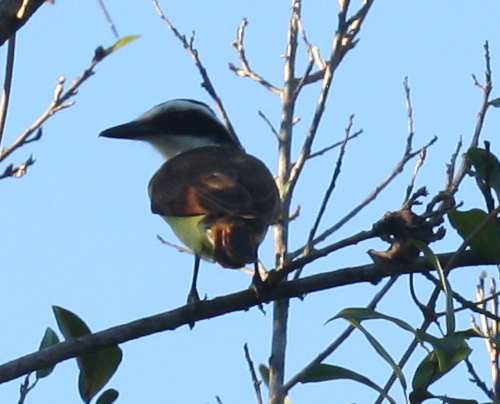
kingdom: Animalia
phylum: Chordata
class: Aves
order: Passeriformes
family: Tyrannidae
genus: Pitangus
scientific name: Pitangus sulphuratus
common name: Great kiskadee
